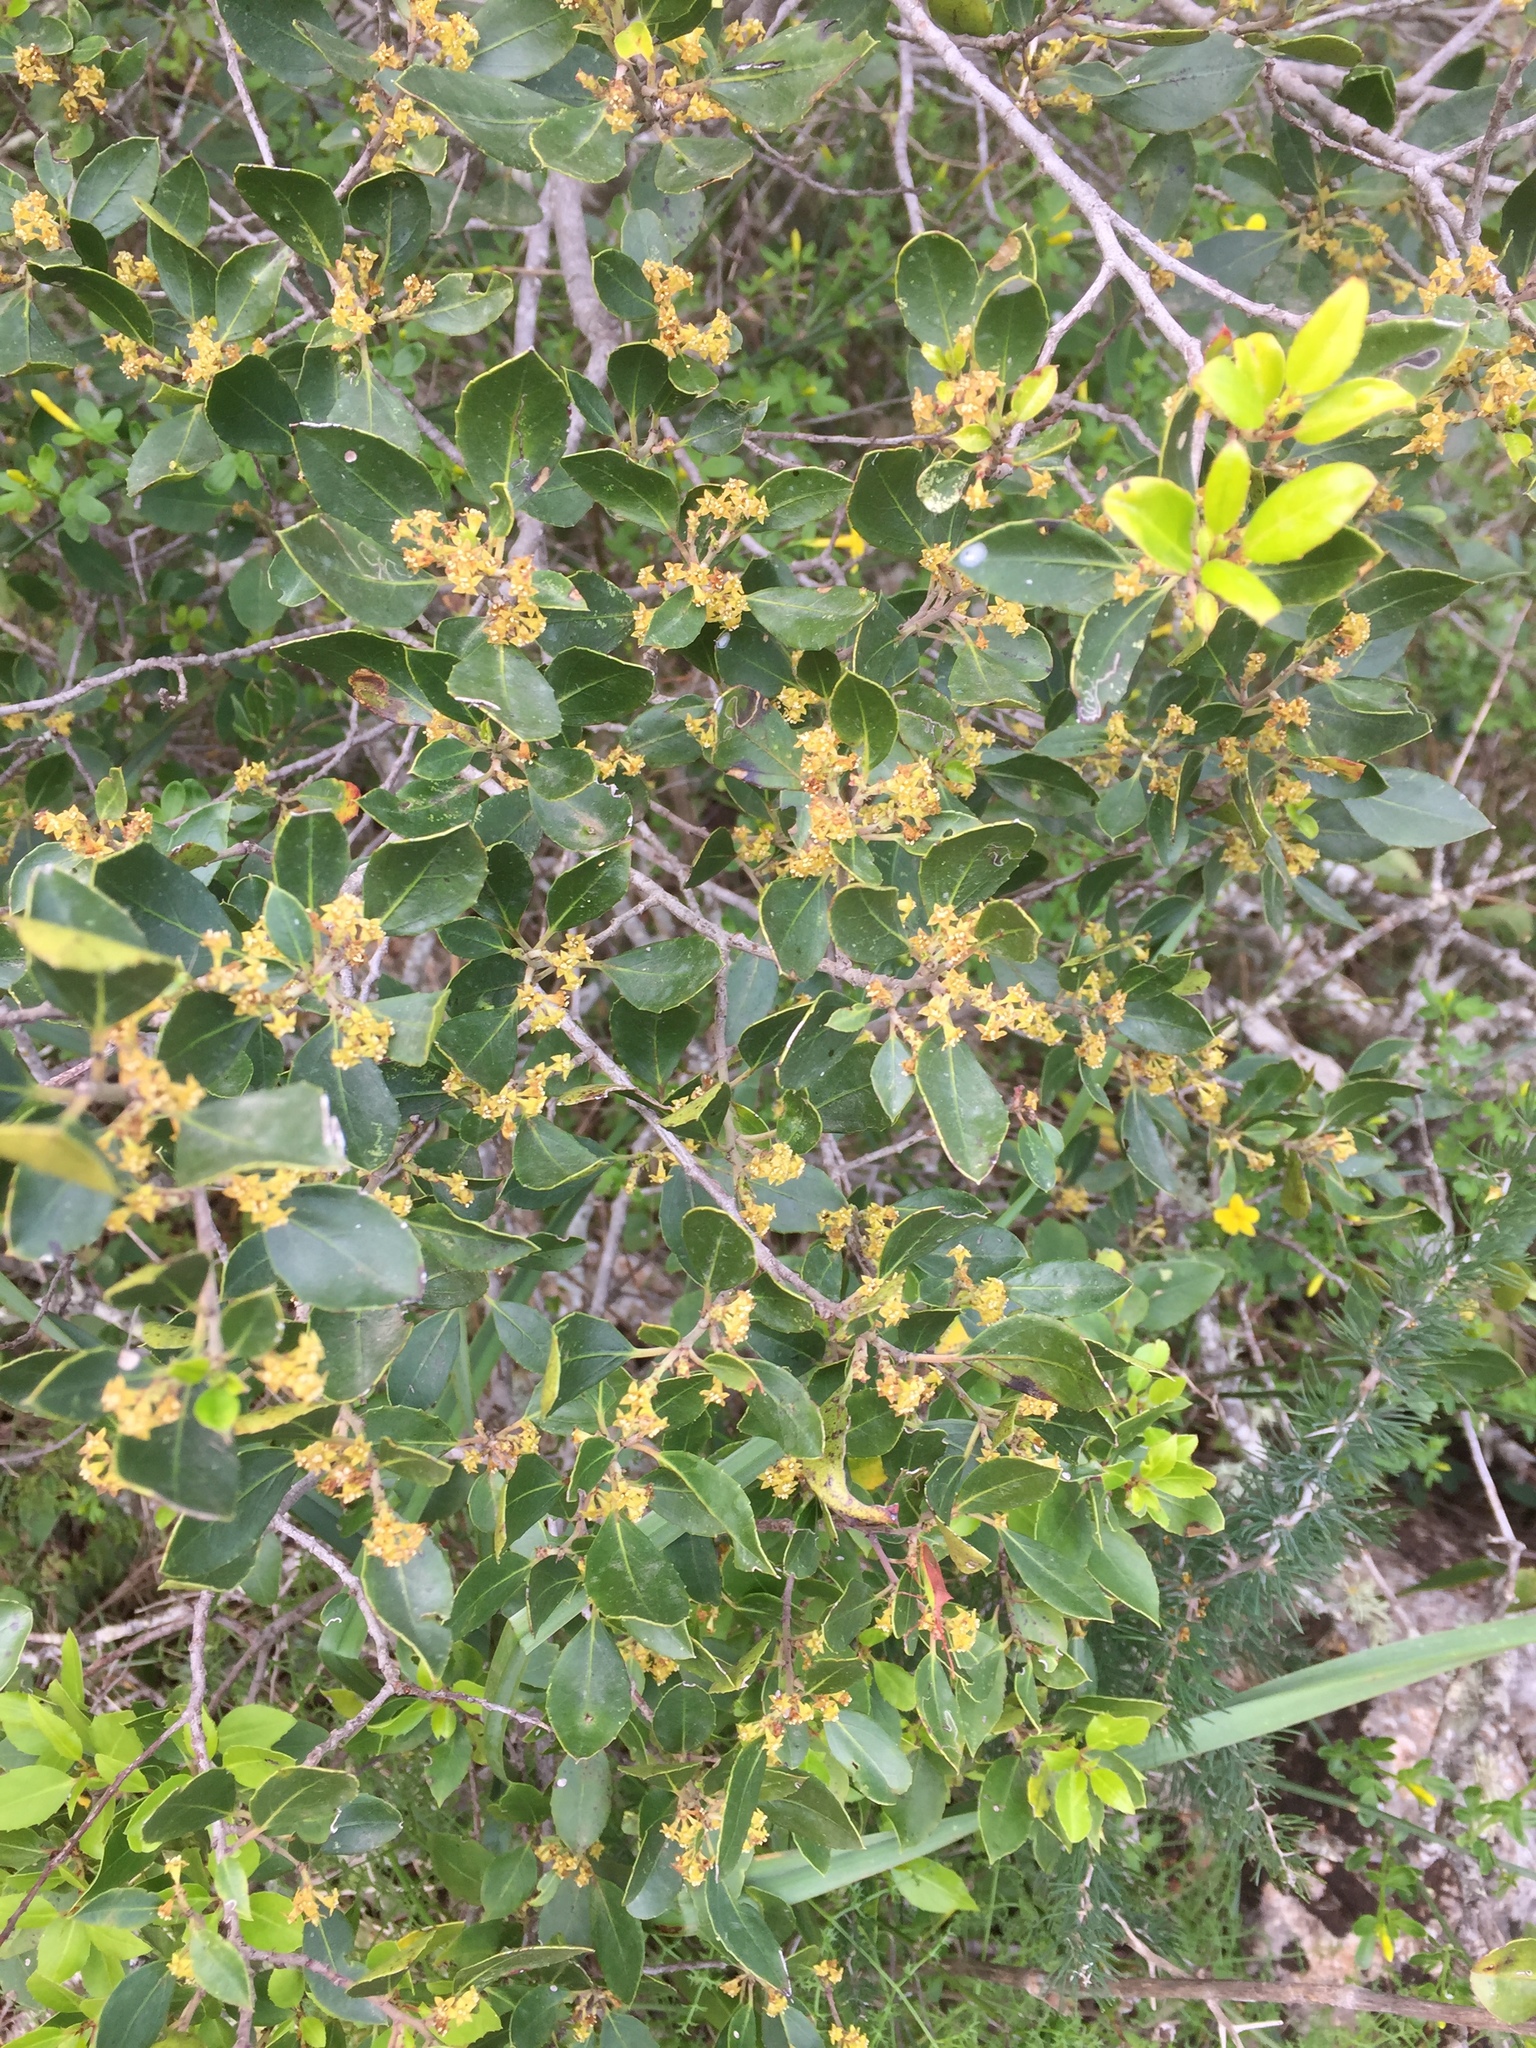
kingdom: Plantae
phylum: Tracheophyta
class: Magnoliopsida
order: Rosales
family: Rhamnaceae
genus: Rhamnus
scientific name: Rhamnus alaternus
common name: Mediterranean buckthorn
